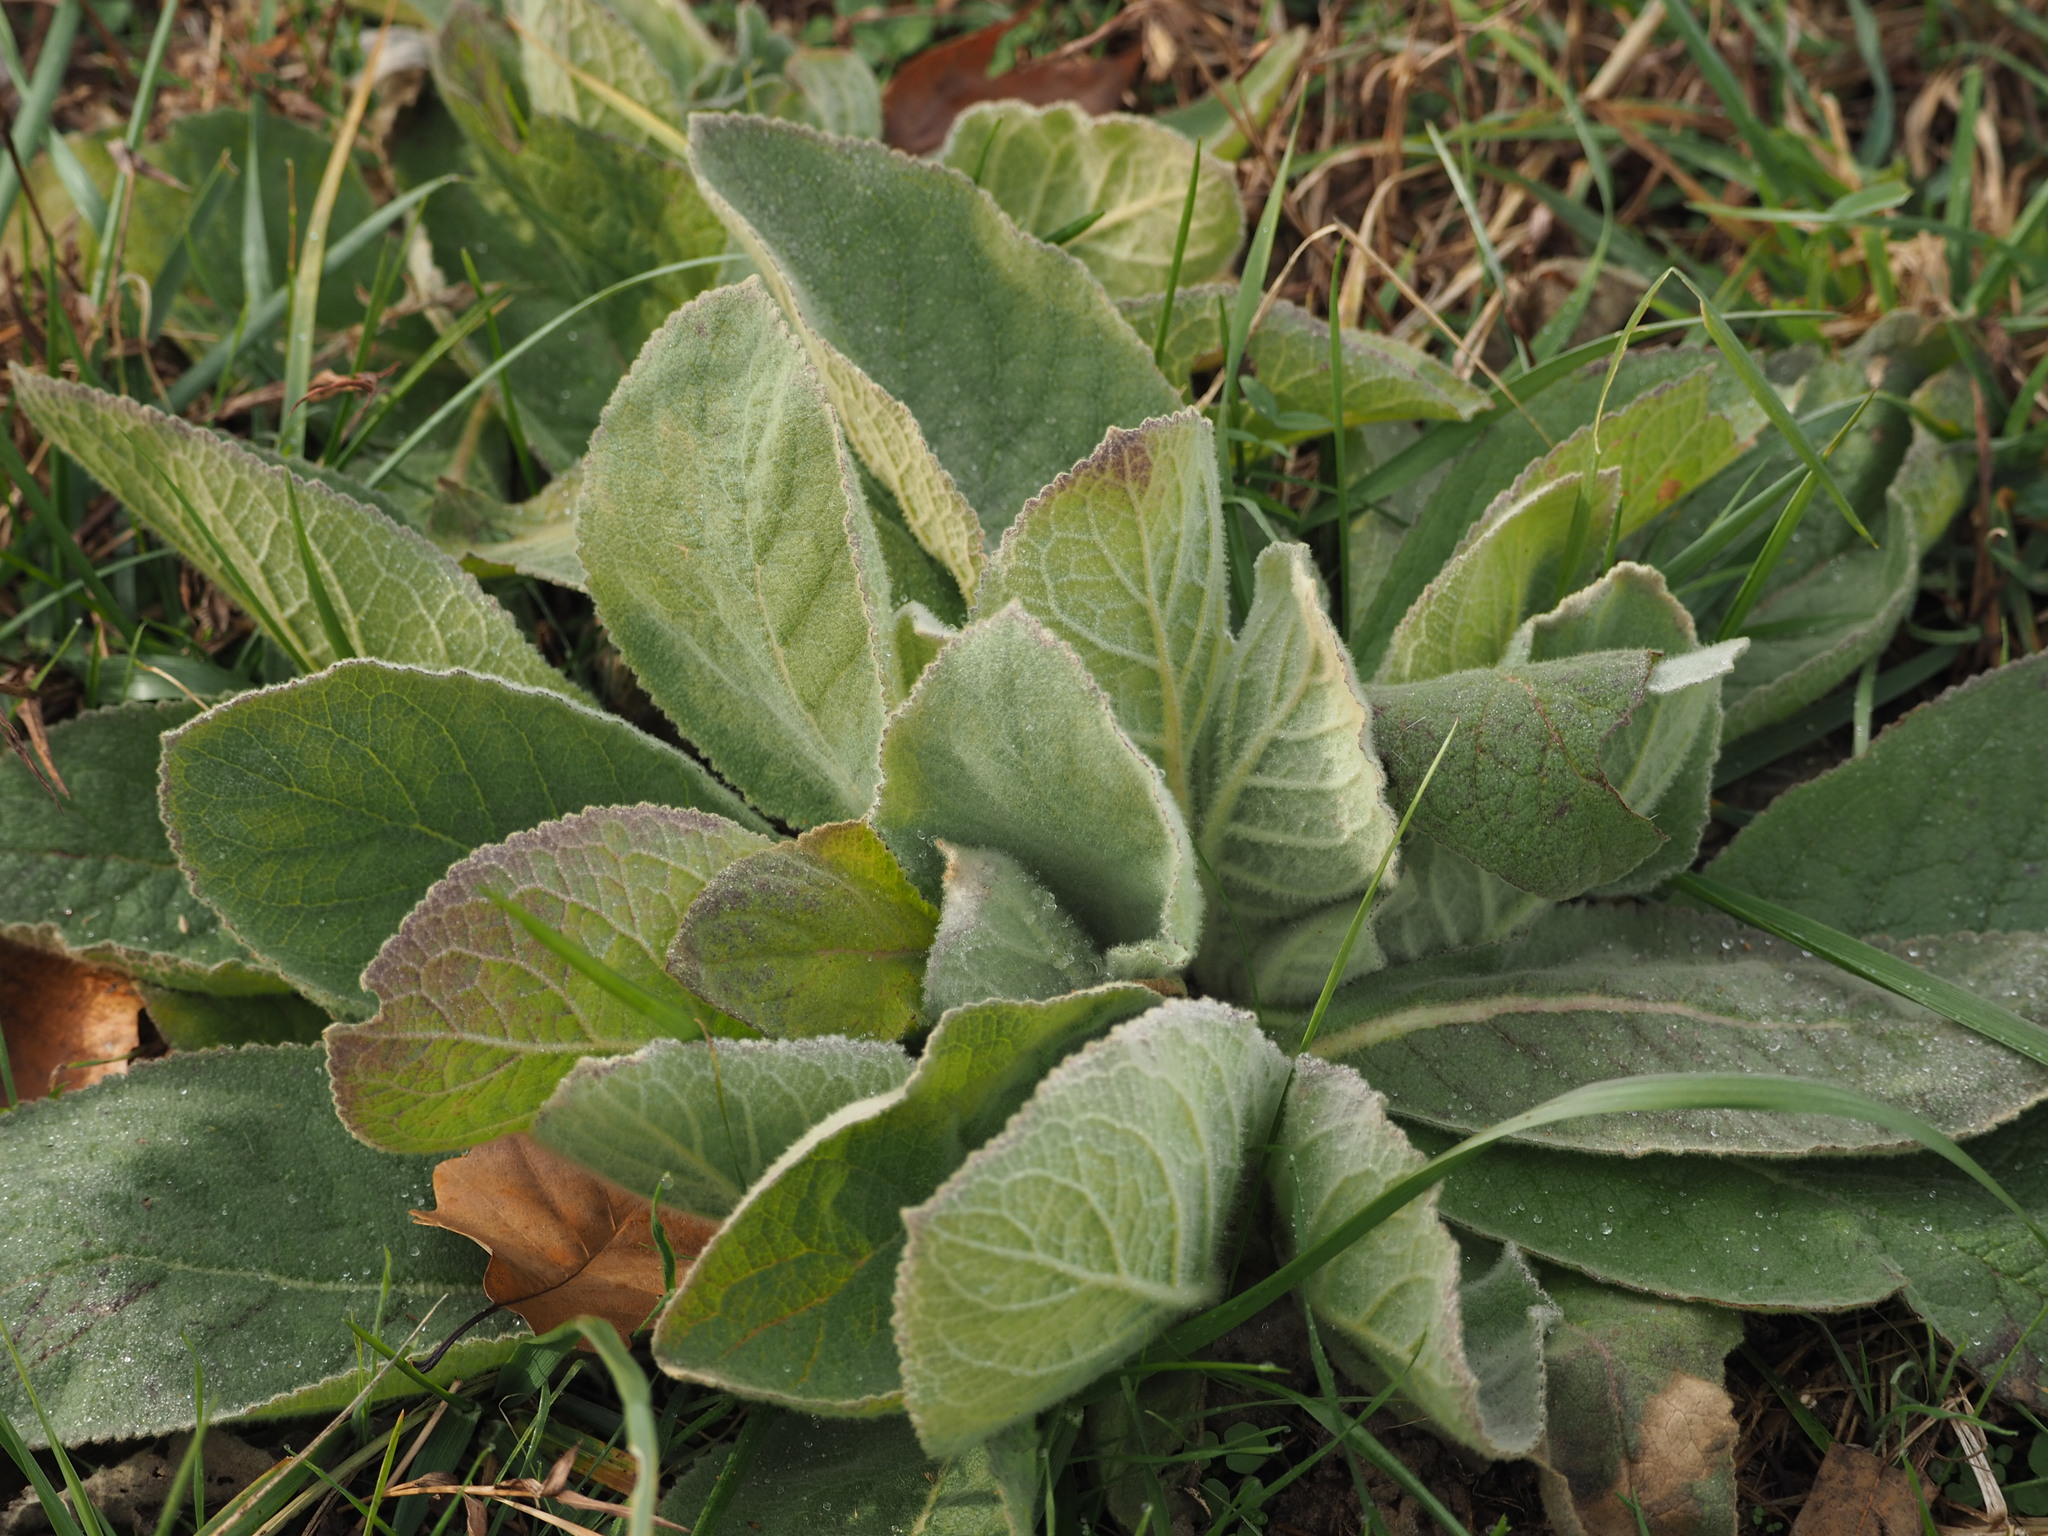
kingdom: Plantae
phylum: Tracheophyta
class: Magnoliopsida
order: Lamiales
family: Scrophulariaceae
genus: Verbascum
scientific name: Verbascum thapsus
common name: Common mullein
